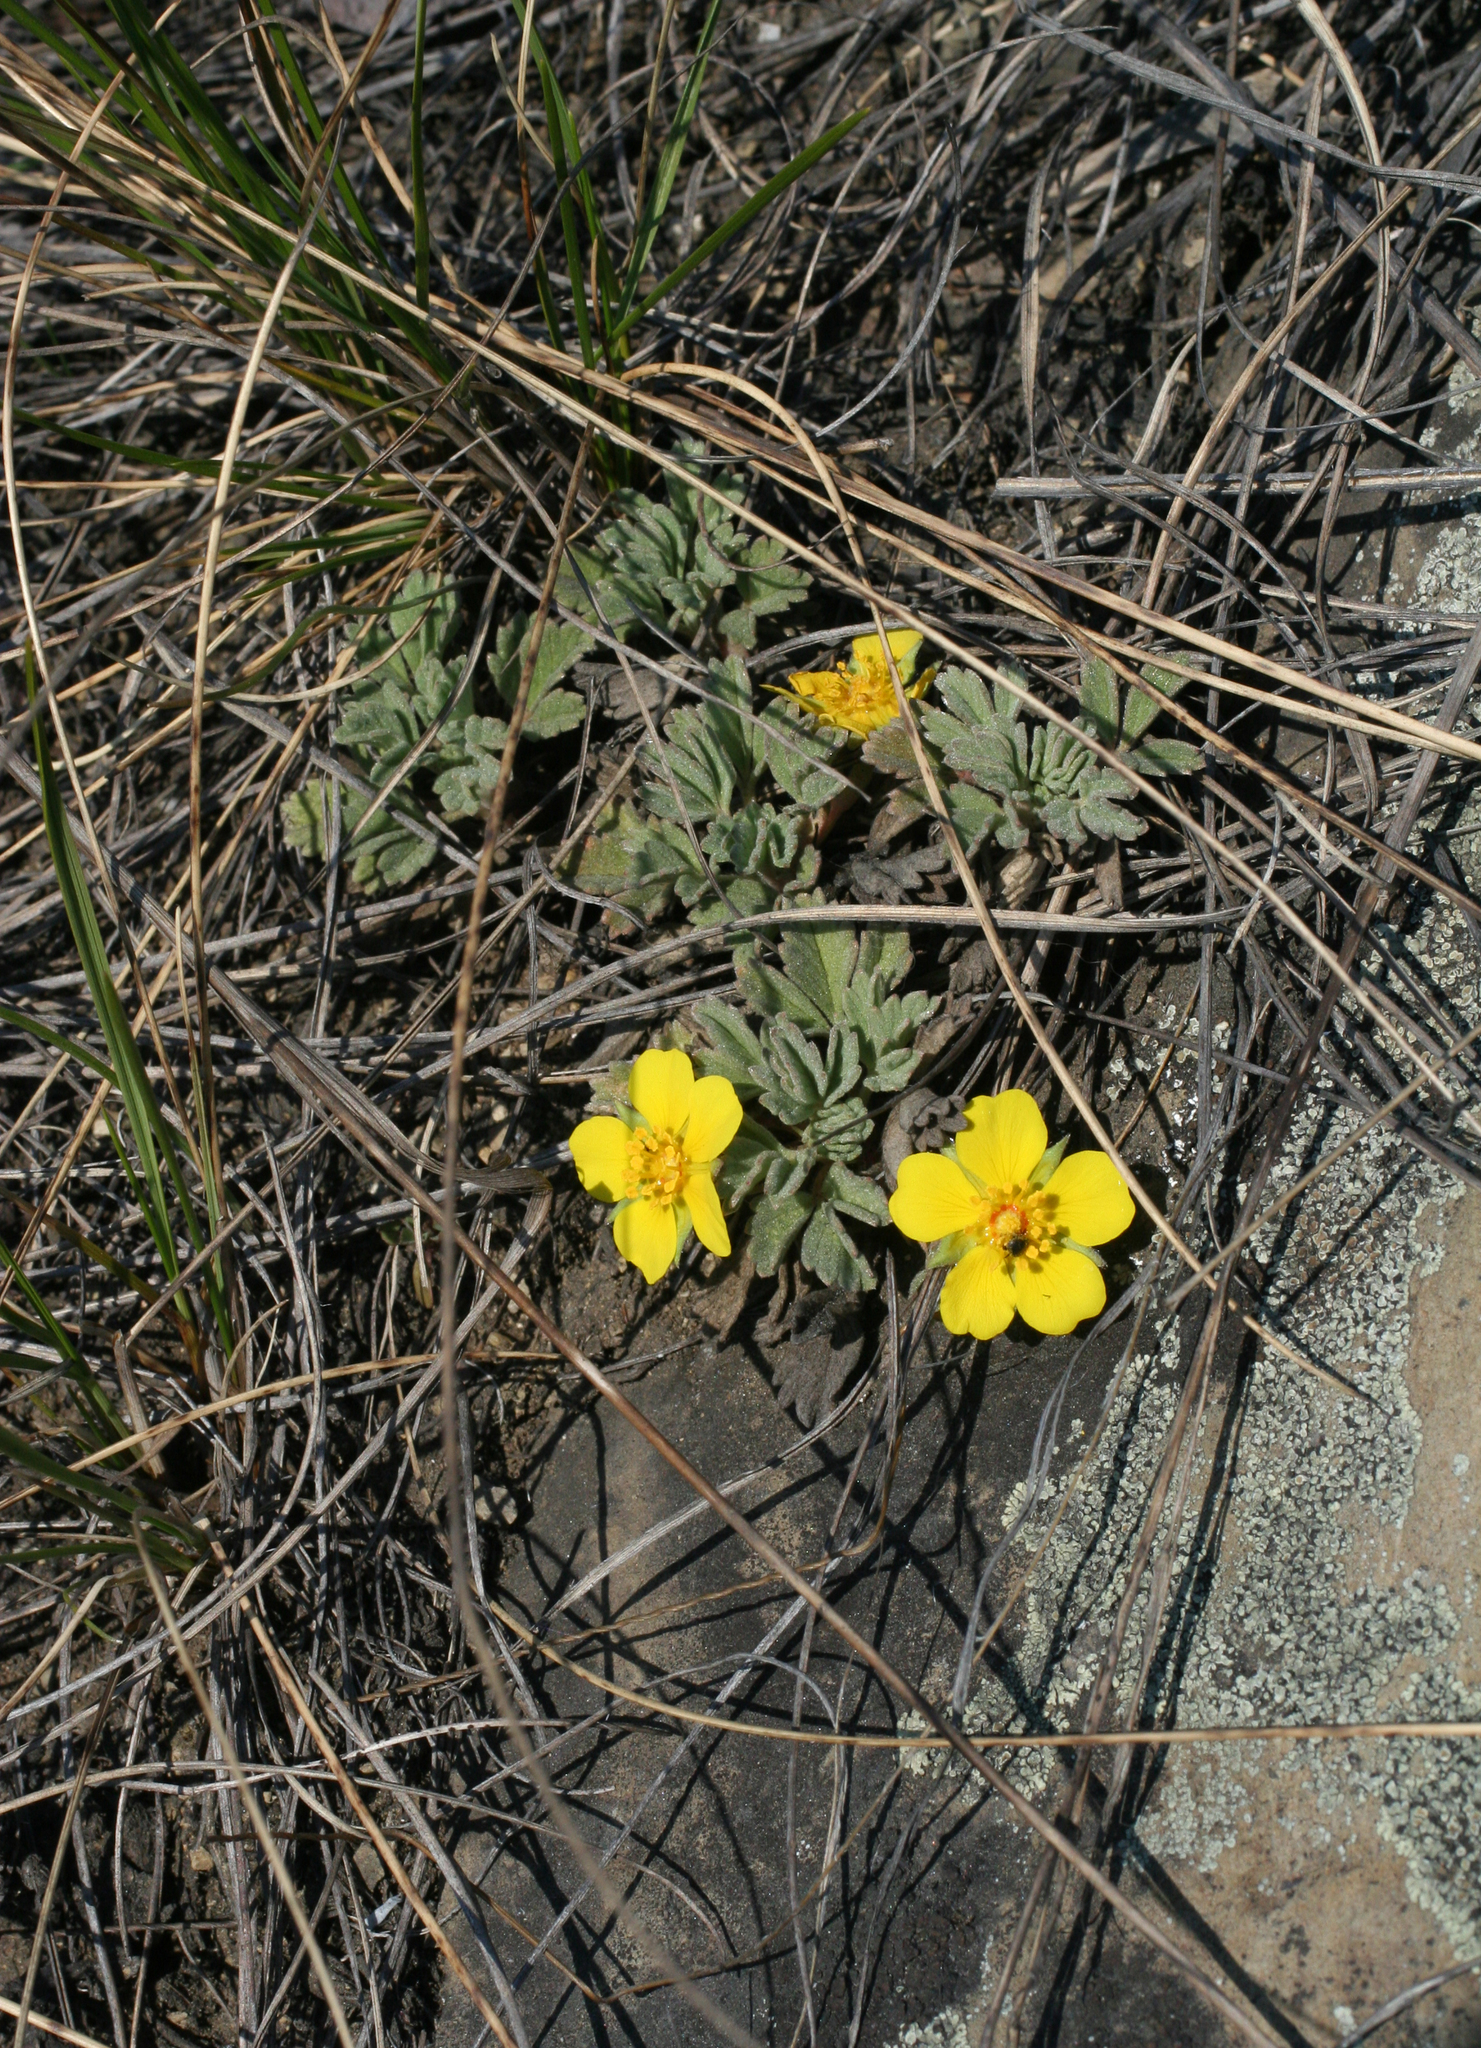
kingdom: Plantae
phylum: Tracheophyta
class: Magnoliopsida
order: Rosales
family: Rosaceae
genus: Potentilla
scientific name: Potentilla acaulis
